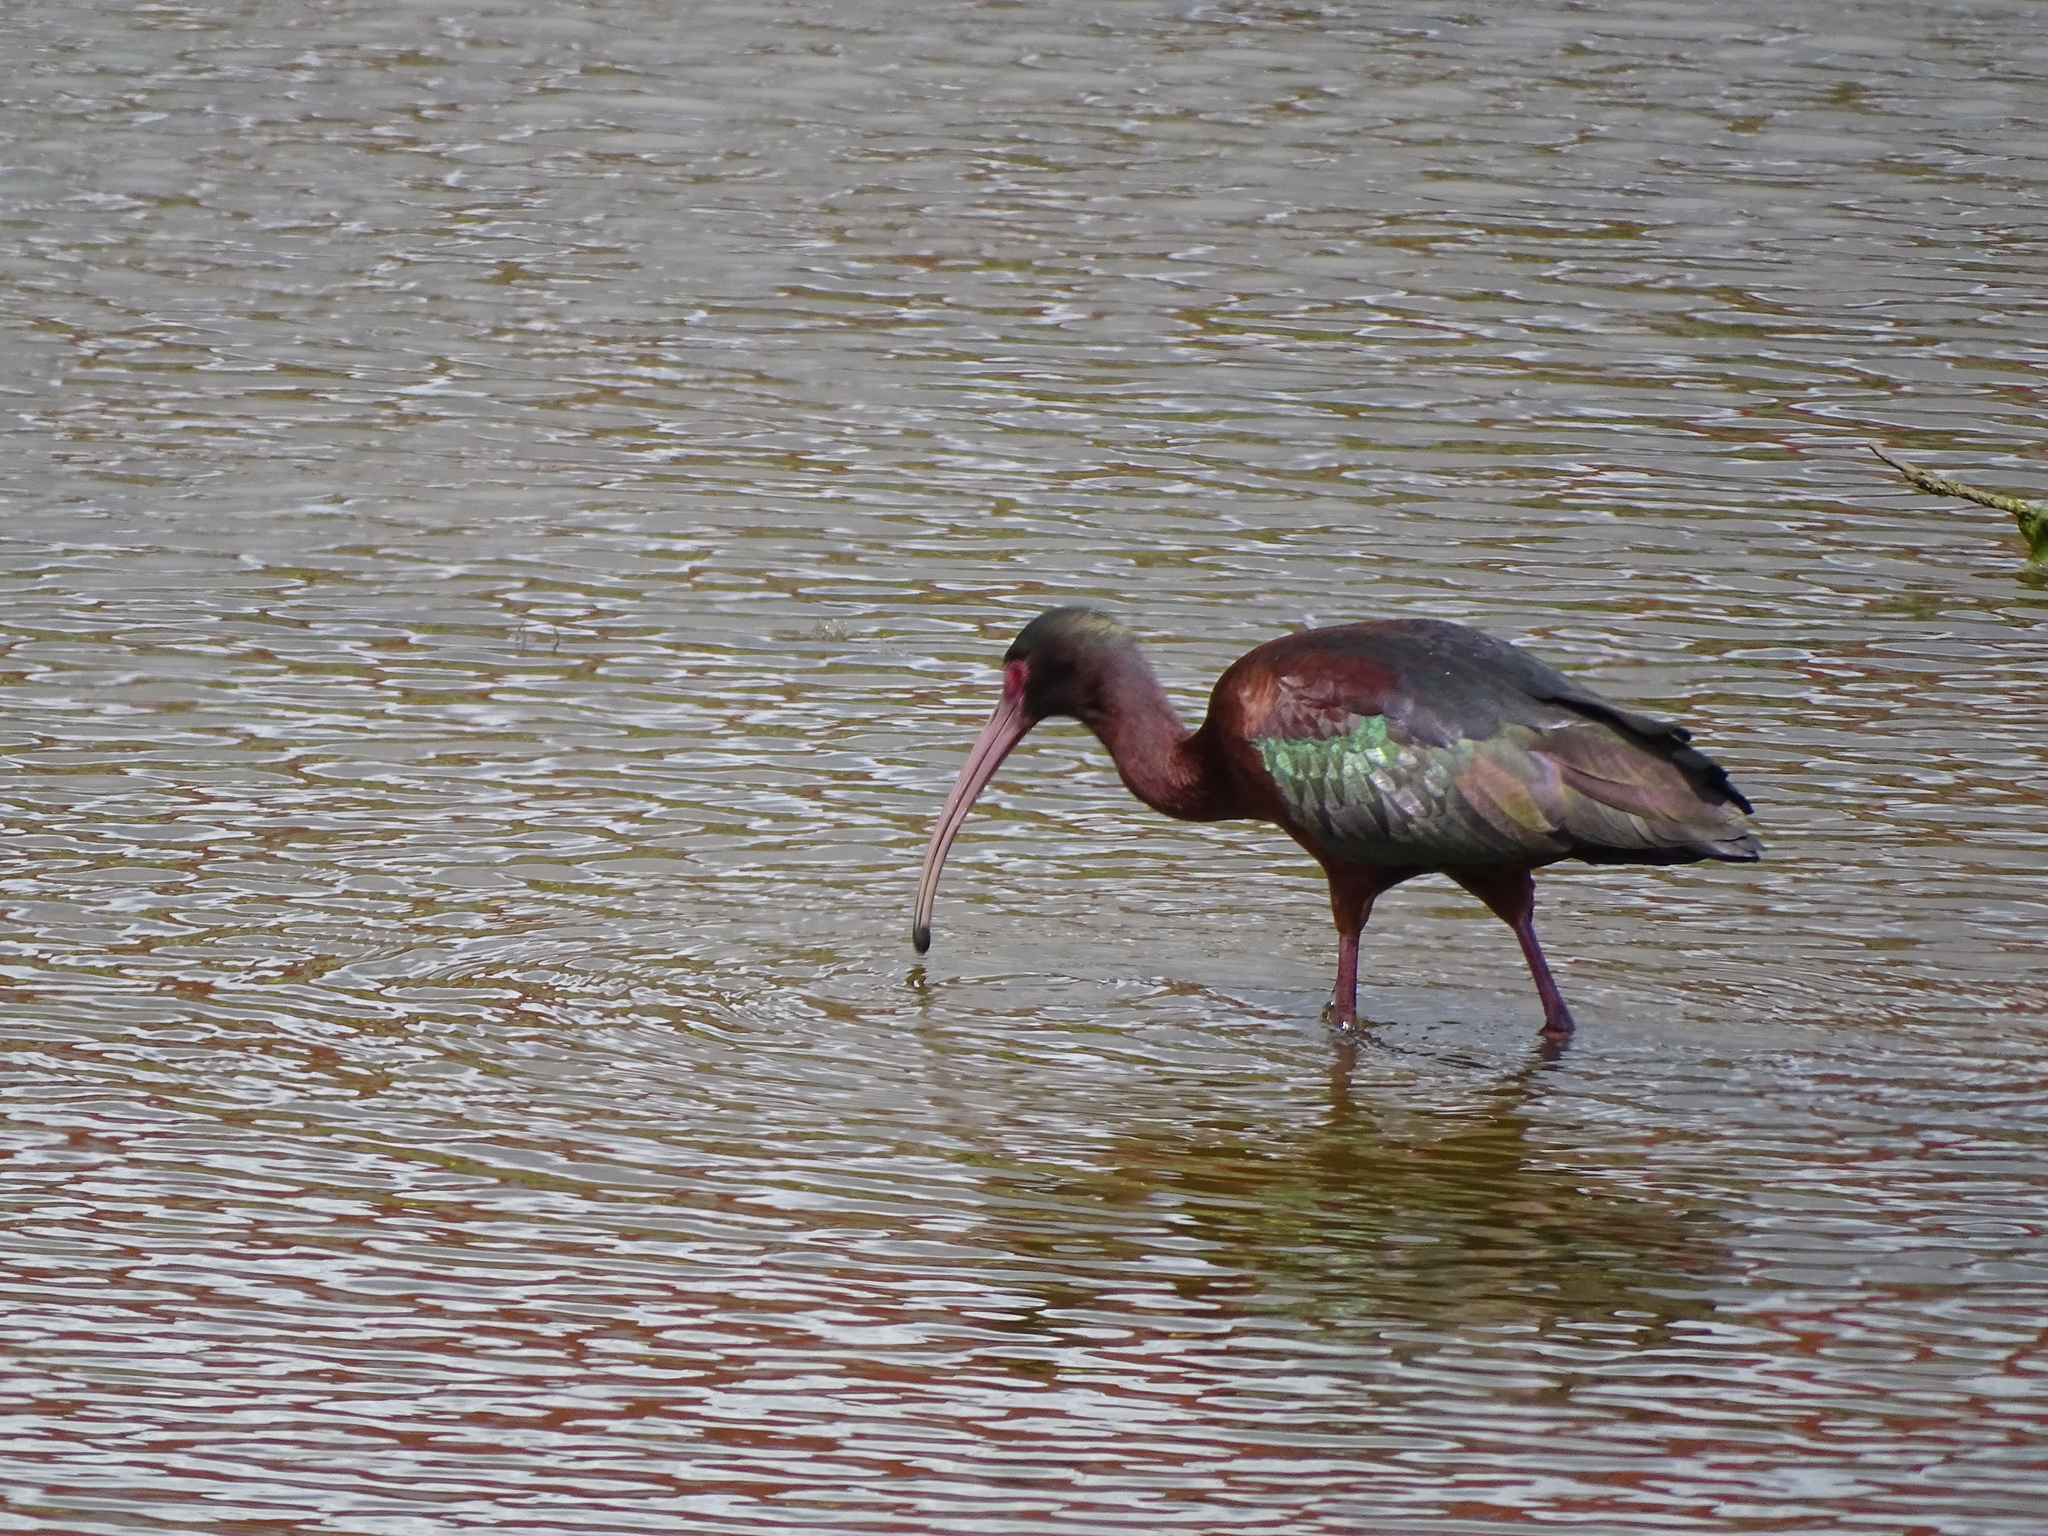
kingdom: Animalia
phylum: Chordata
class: Aves
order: Pelecaniformes
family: Threskiornithidae
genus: Plegadis
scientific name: Plegadis chihi
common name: White-faced ibis
